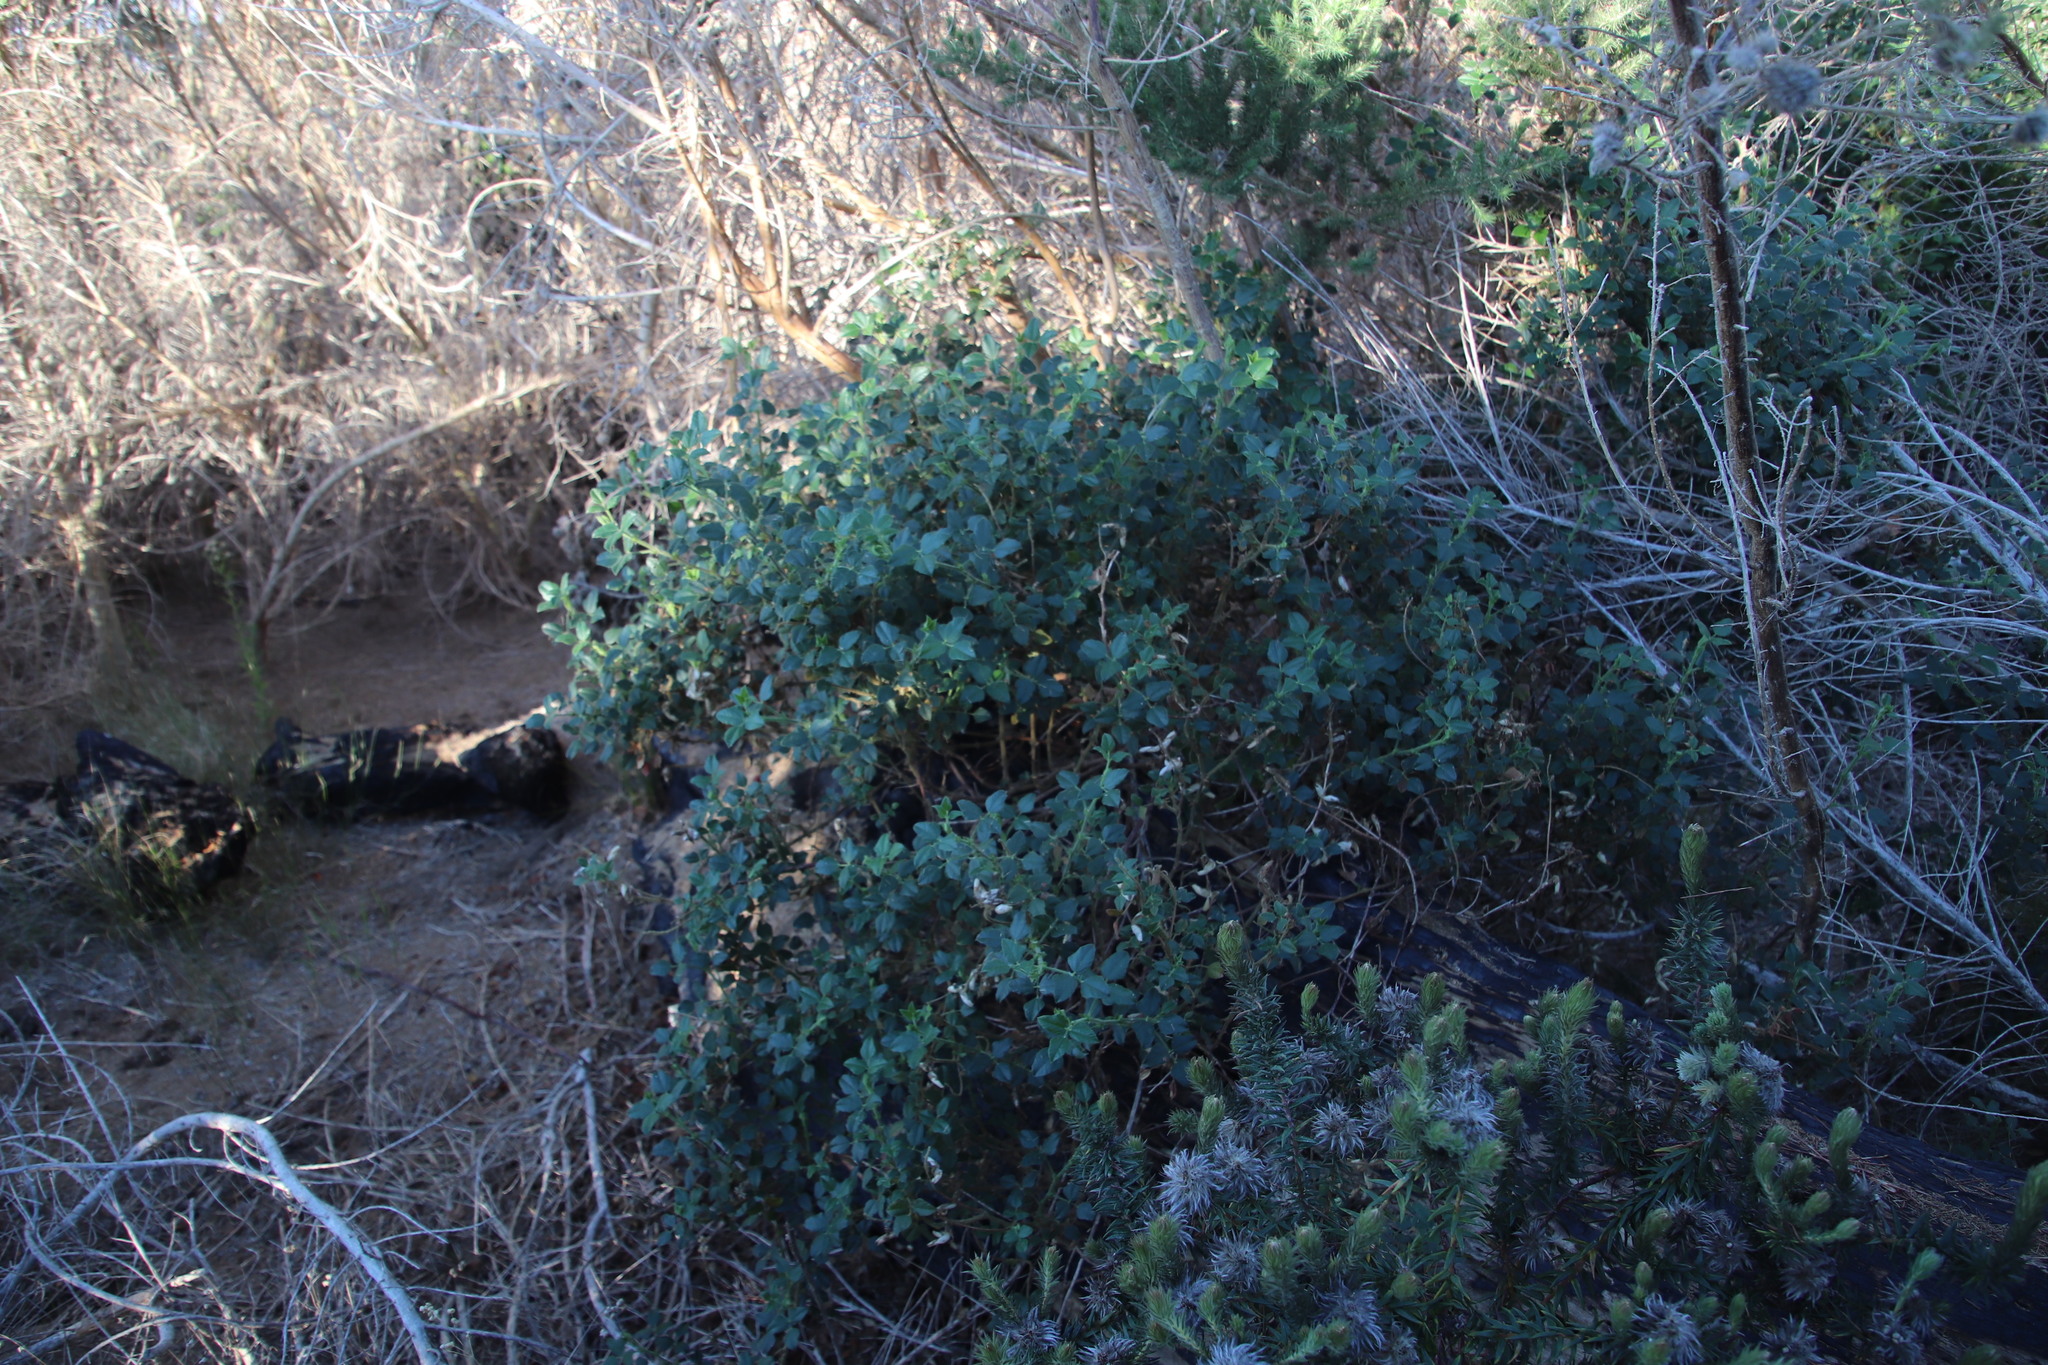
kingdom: Plantae
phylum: Tracheophyta
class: Magnoliopsida
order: Fabales
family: Fabaceae
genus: Bolusafra
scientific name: Bolusafra bituminosa
